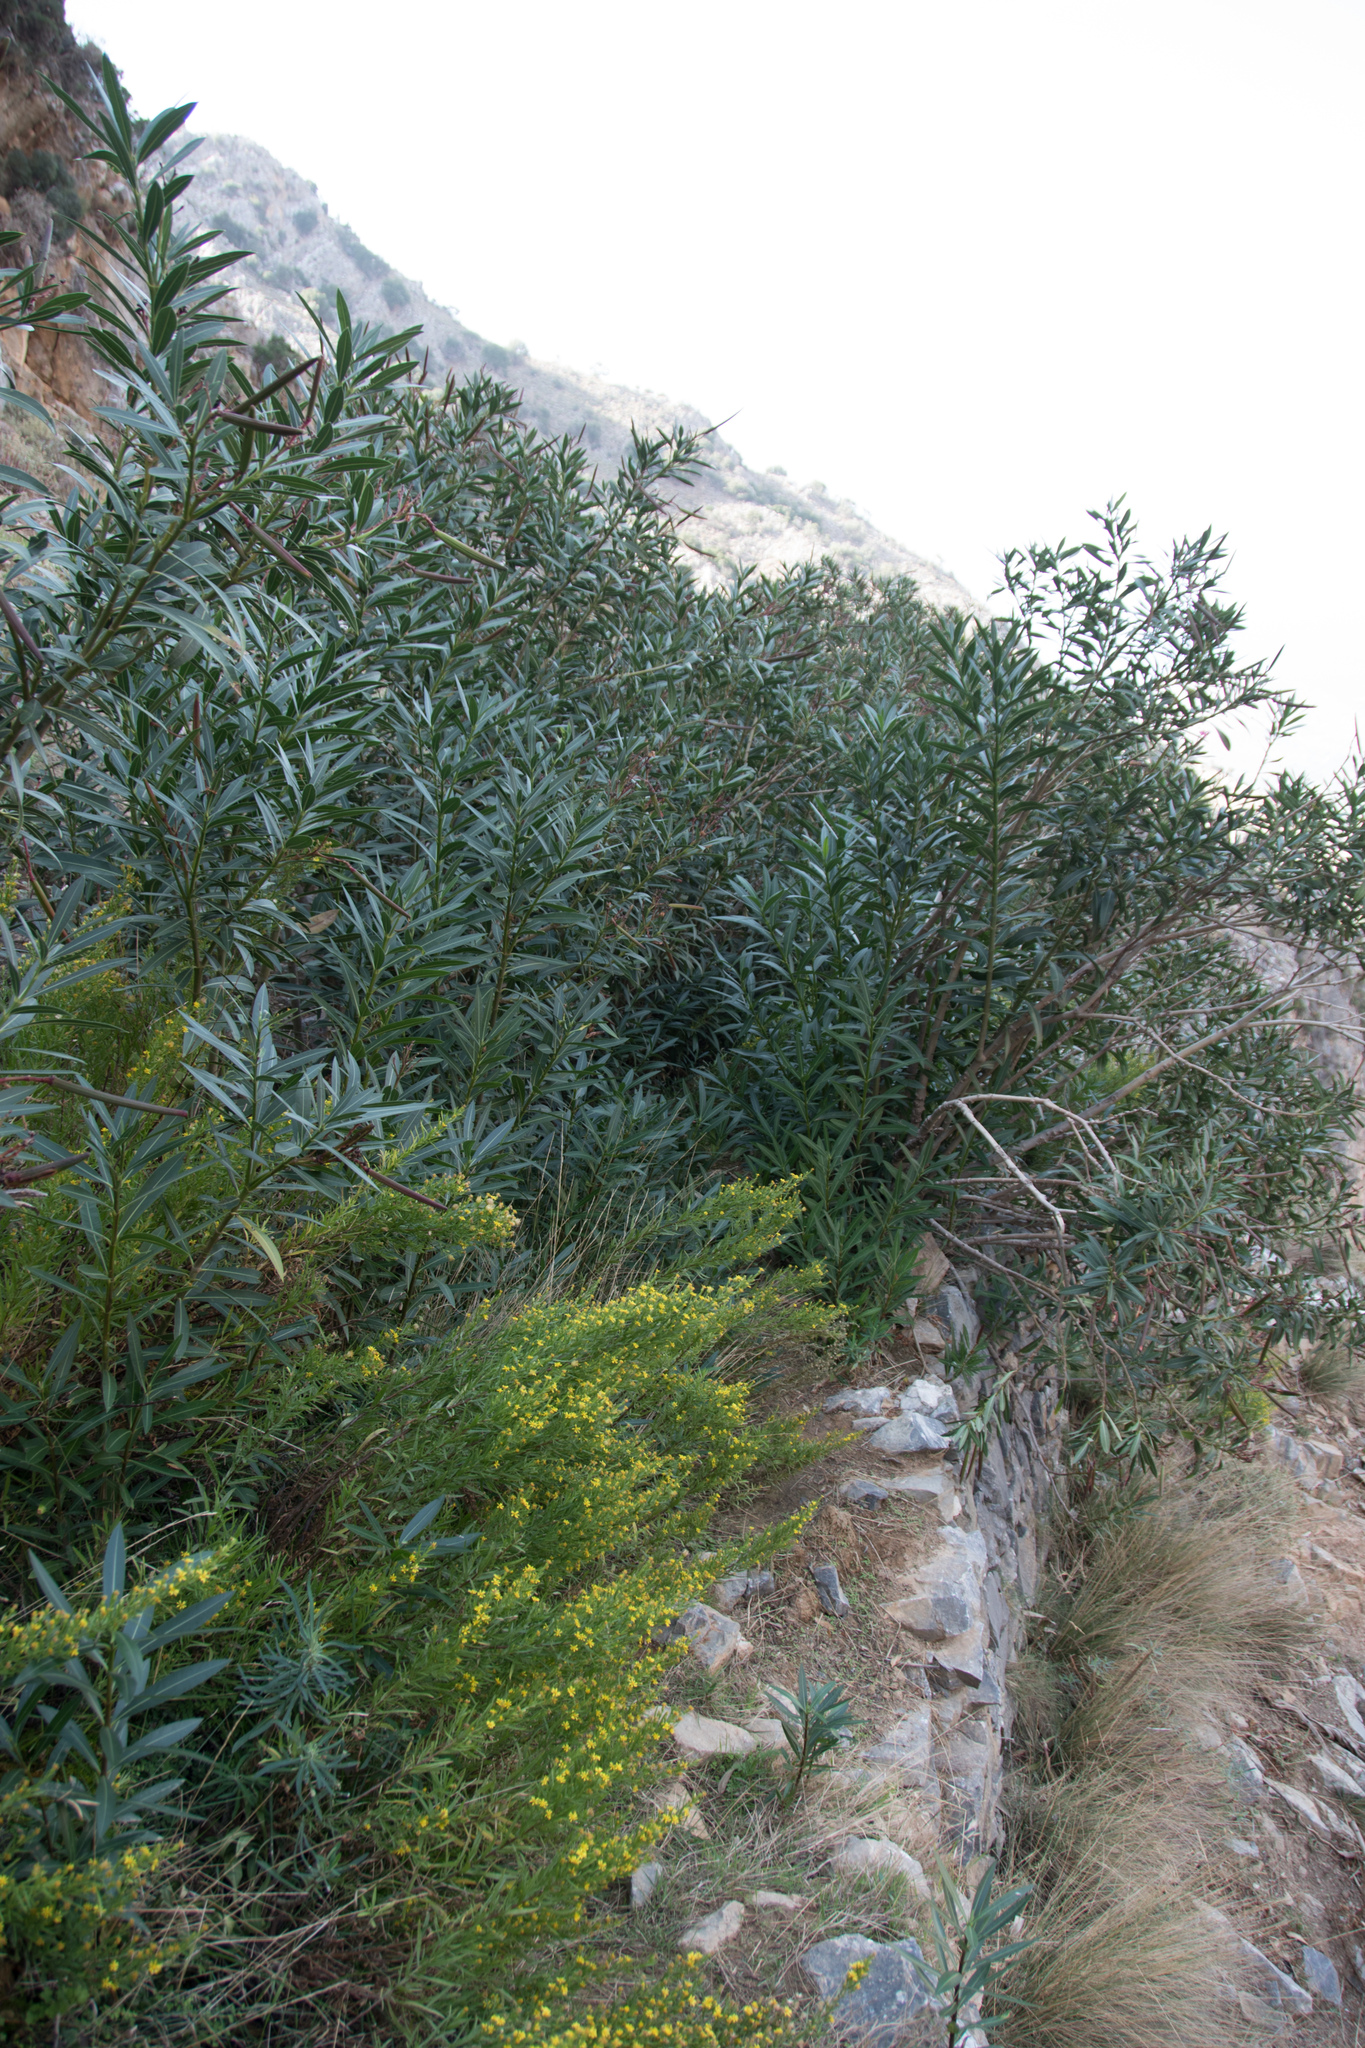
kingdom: Plantae
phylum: Tracheophyta
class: Magnoliopsida
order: Gentianales
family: Apocynaceae
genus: Nerium
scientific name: Nerium oleander
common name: Oleander
